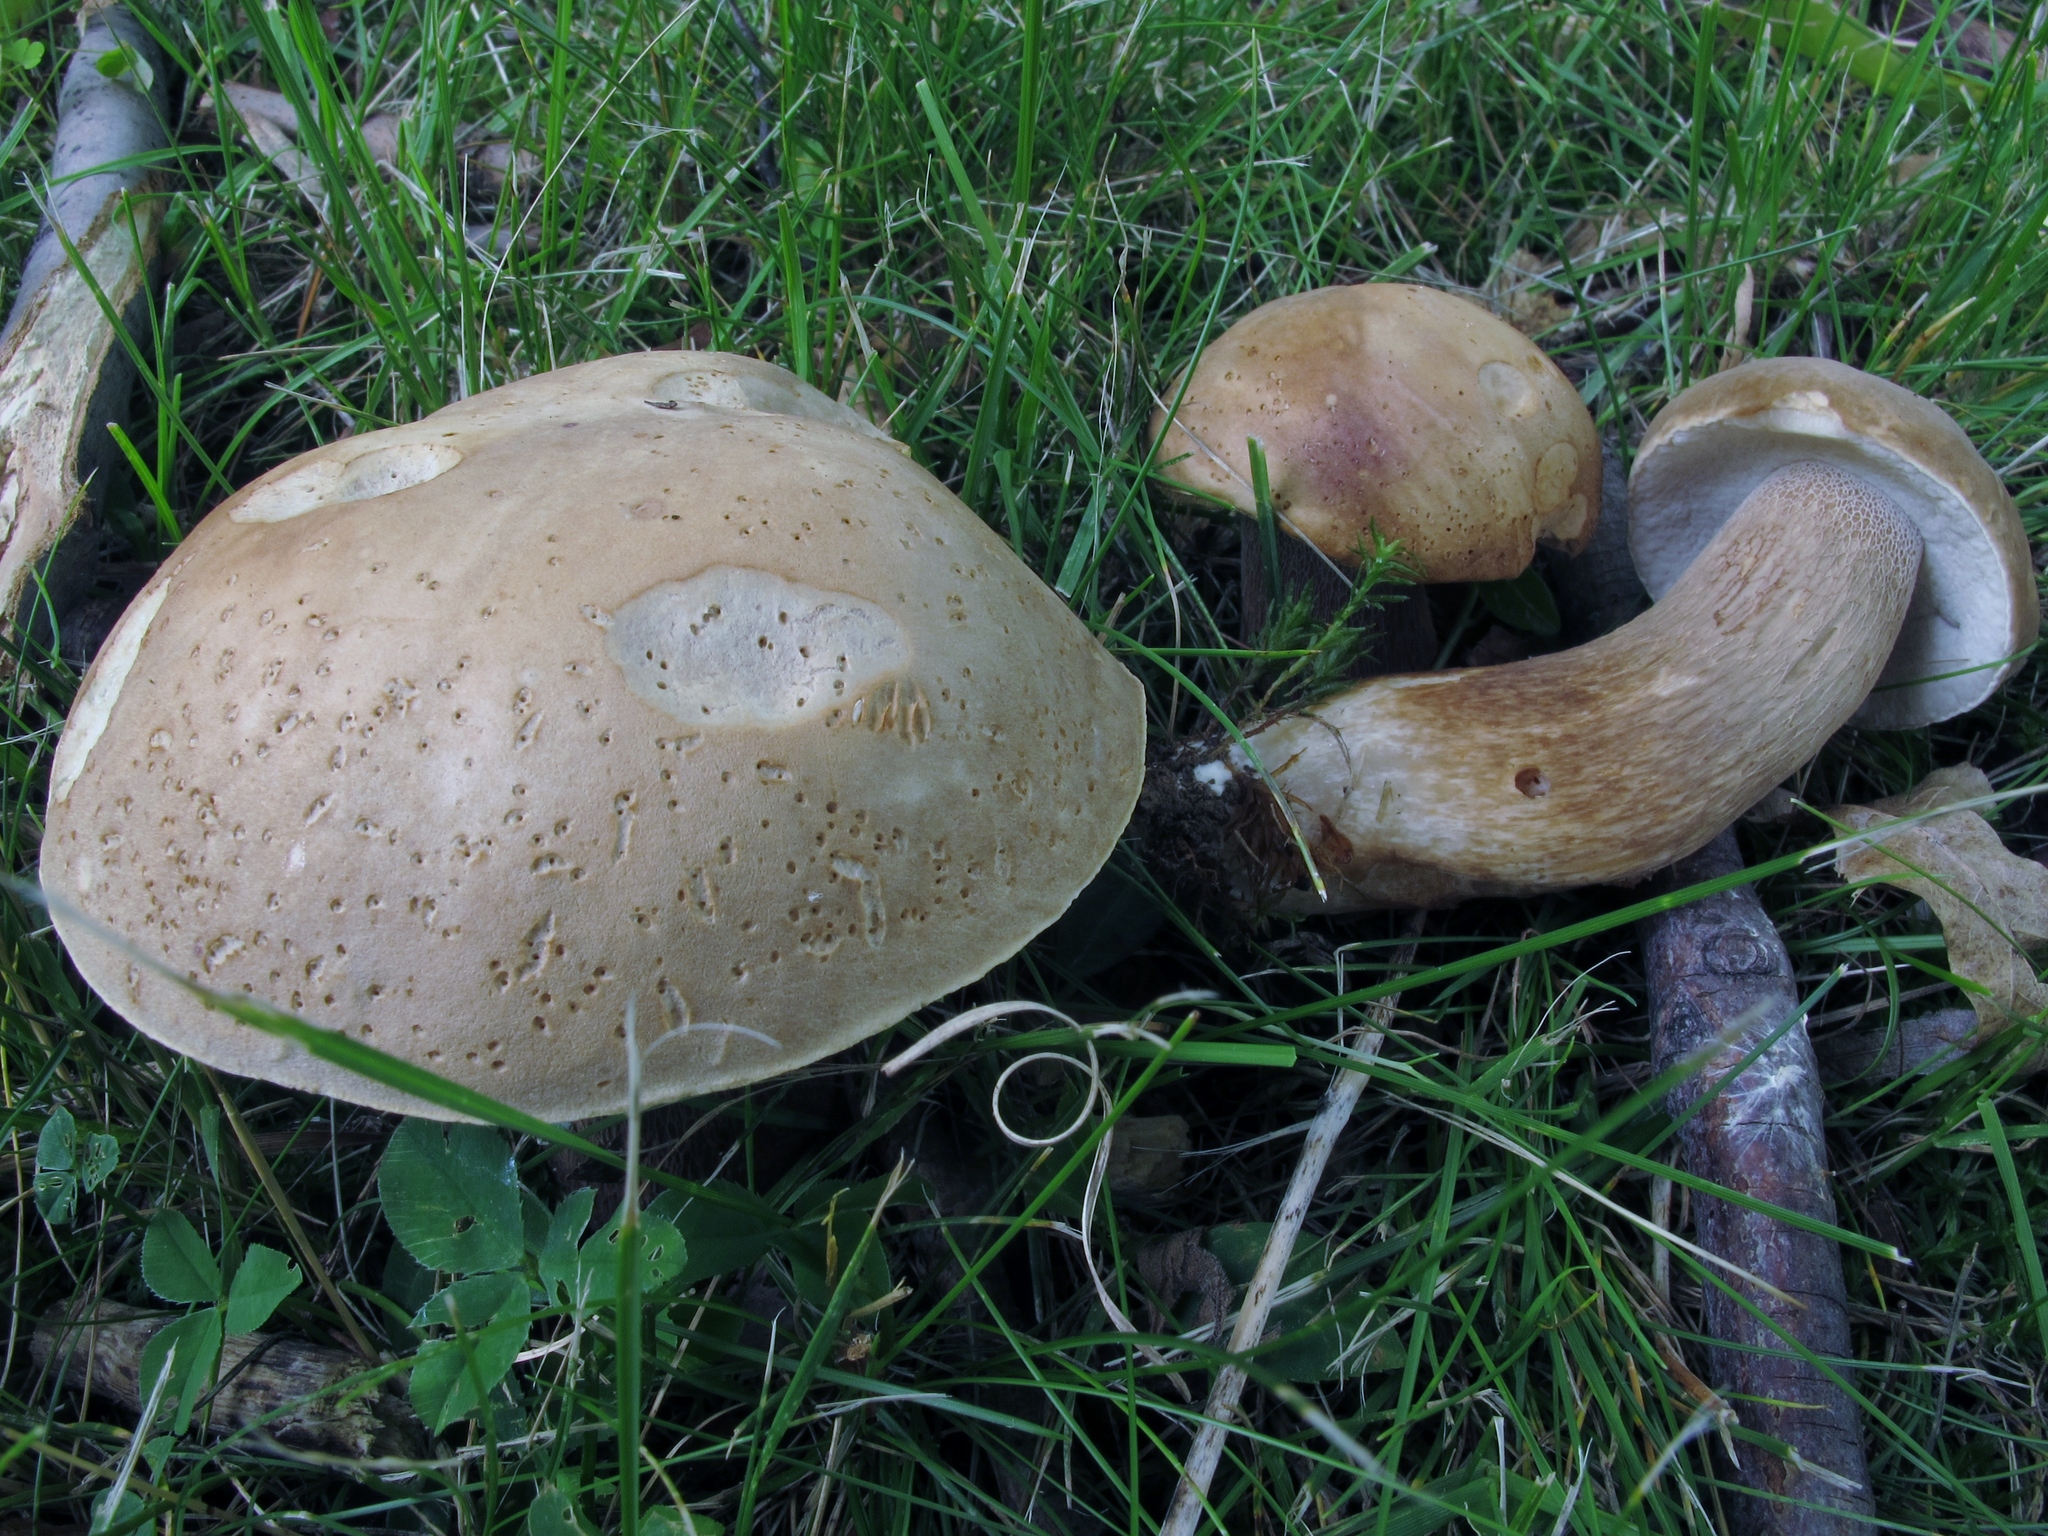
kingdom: Fungi
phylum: Basidiomycota
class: Agaricomycetes
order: Boletales
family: Boletaceae
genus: Boletus
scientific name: Boletus variipes
